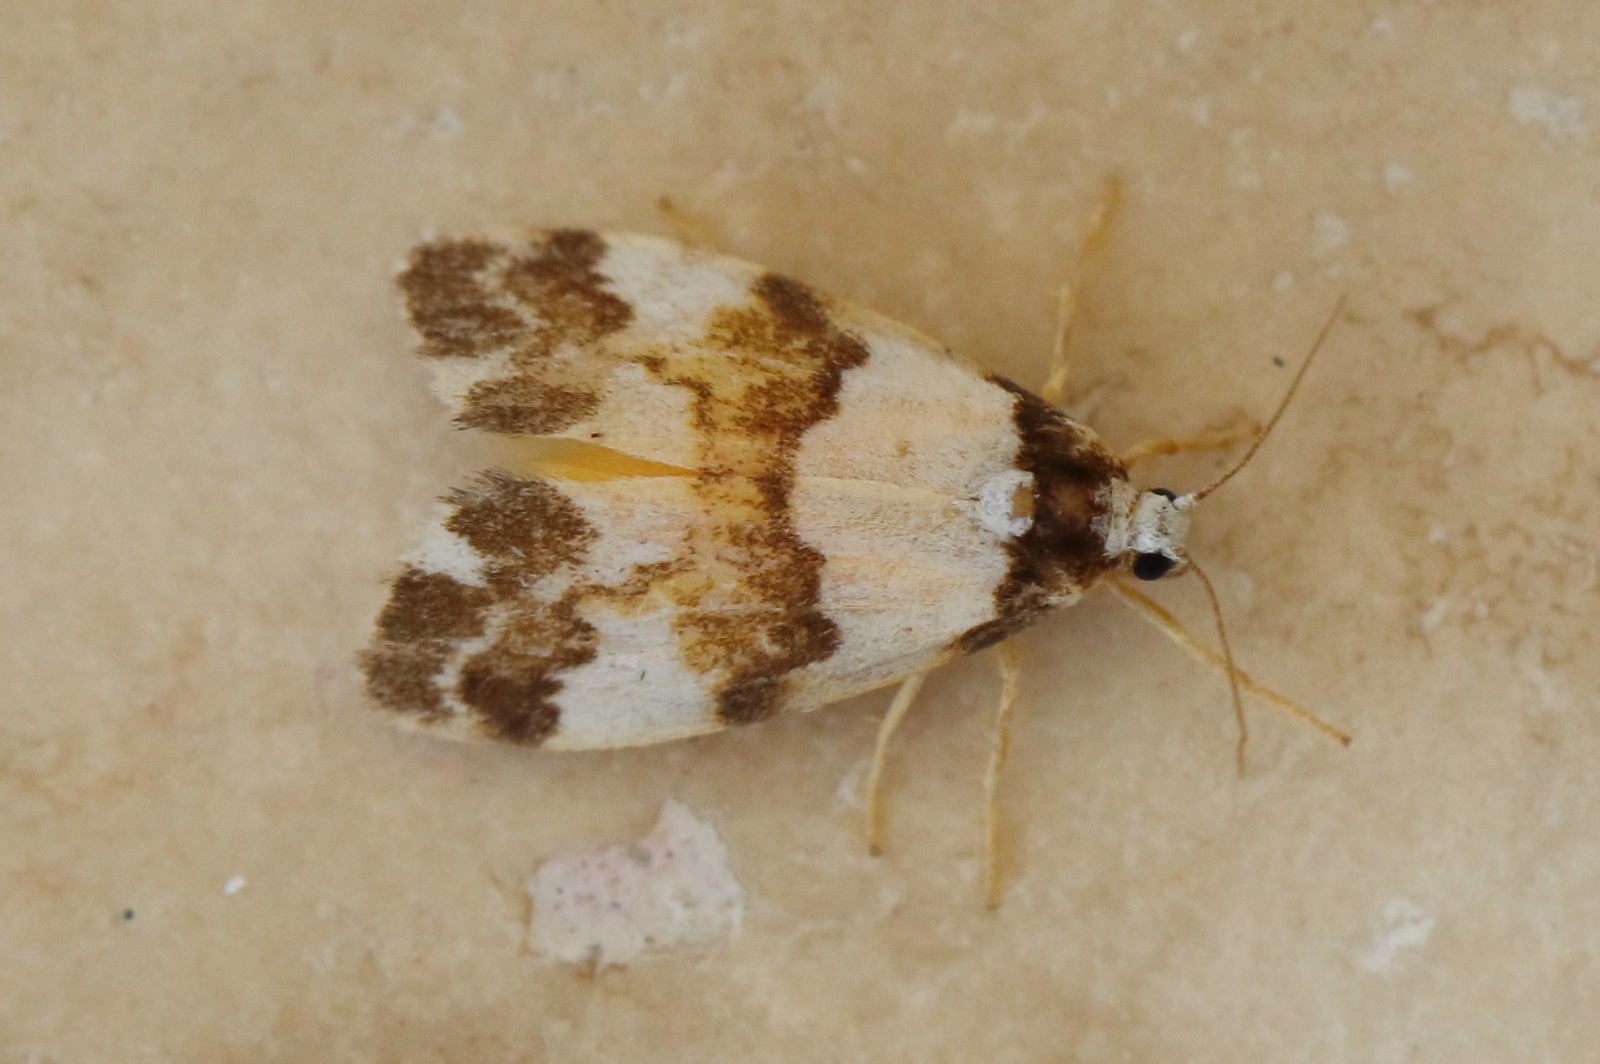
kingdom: Animalia
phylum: Arthropoda
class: Insecta
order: Lepidoptera
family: Erebidae
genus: Philenora
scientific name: Philenora aspectalella
